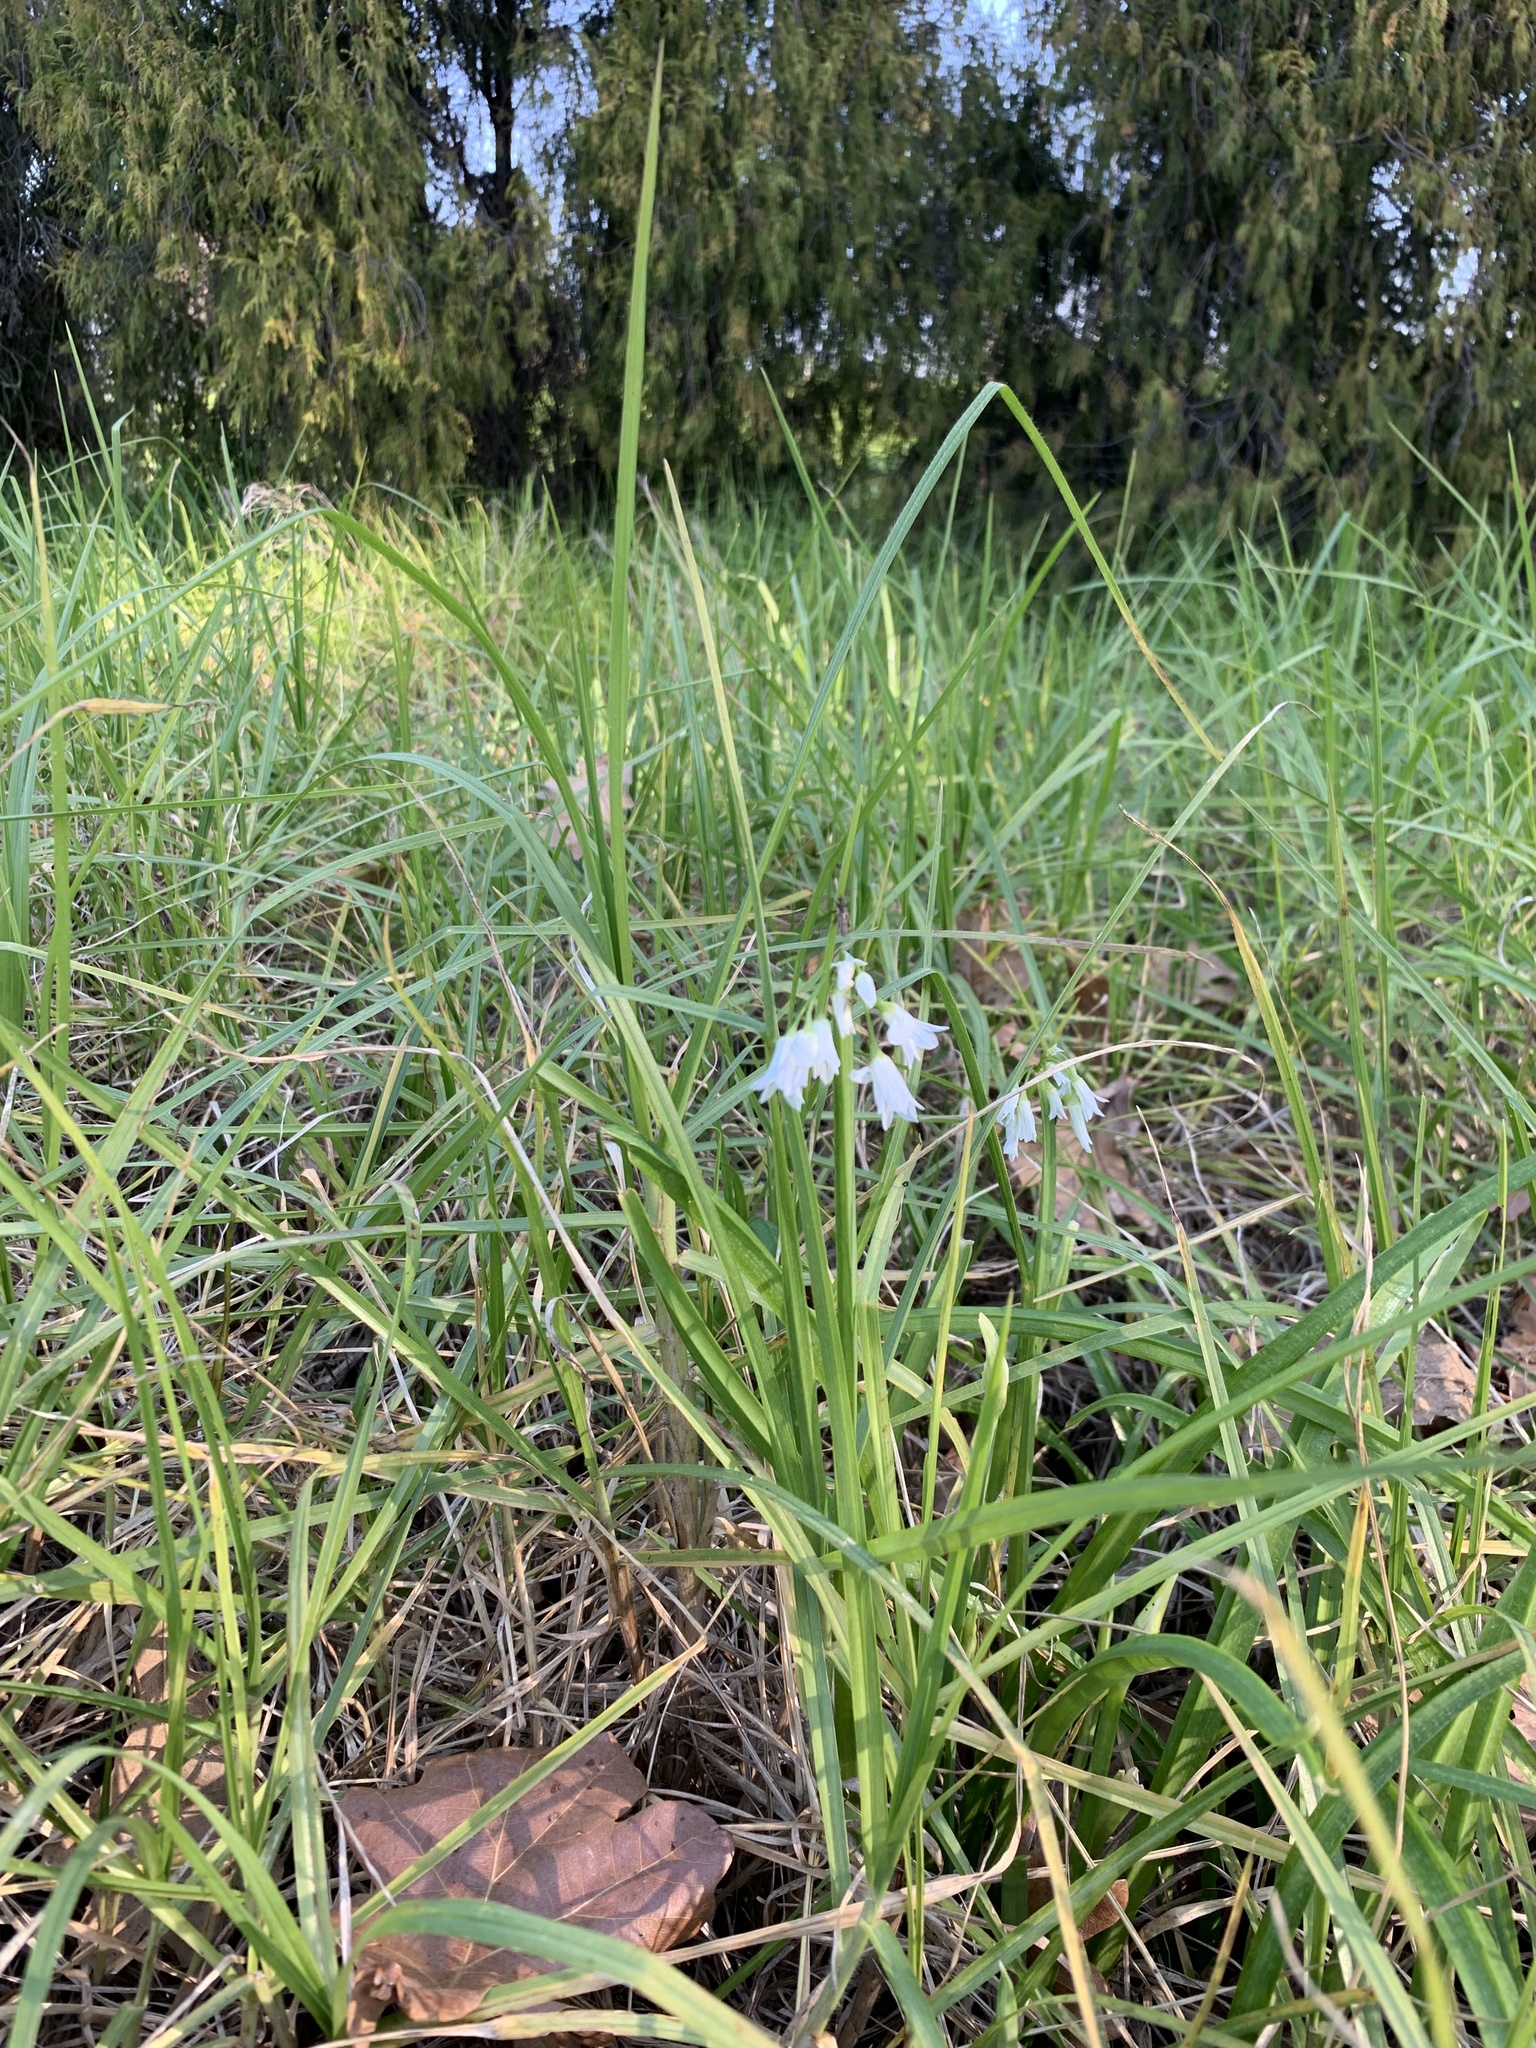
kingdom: Plantae
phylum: Tracheophyta
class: Liliopsida
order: Asparagales
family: Amaryllidaceae
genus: Allium
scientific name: Allium triquetrum
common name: Three-cornered garlic
